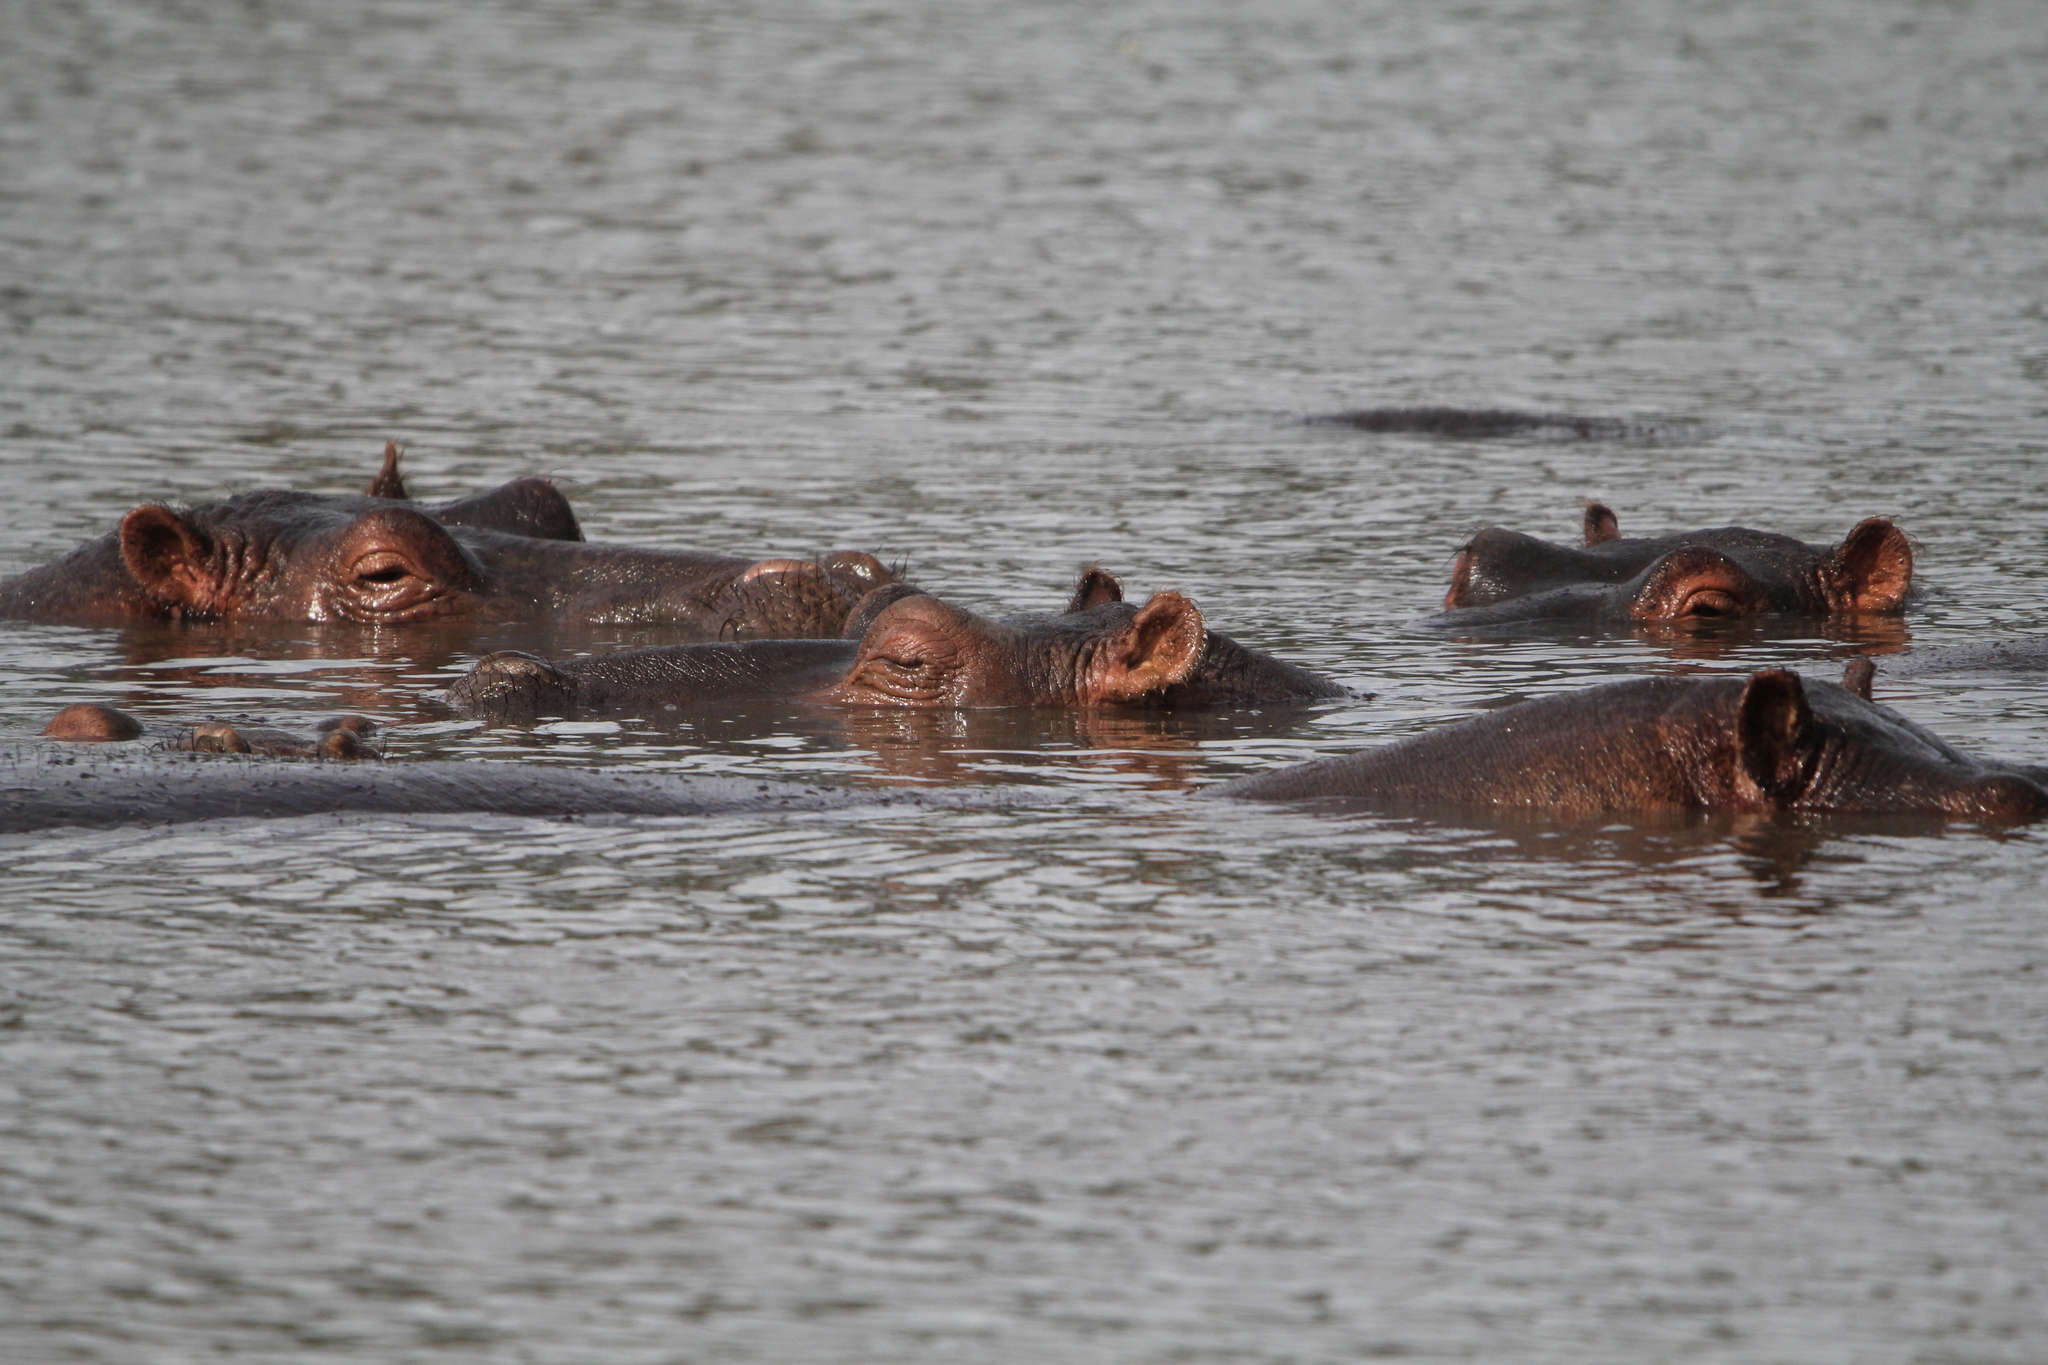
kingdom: Animalia
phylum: Chordata
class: Mammalia
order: Artiodactyla
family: Hippopotamidae
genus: Hippopotamus
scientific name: Hippopotamus amphibius
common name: Common hippopotamus
